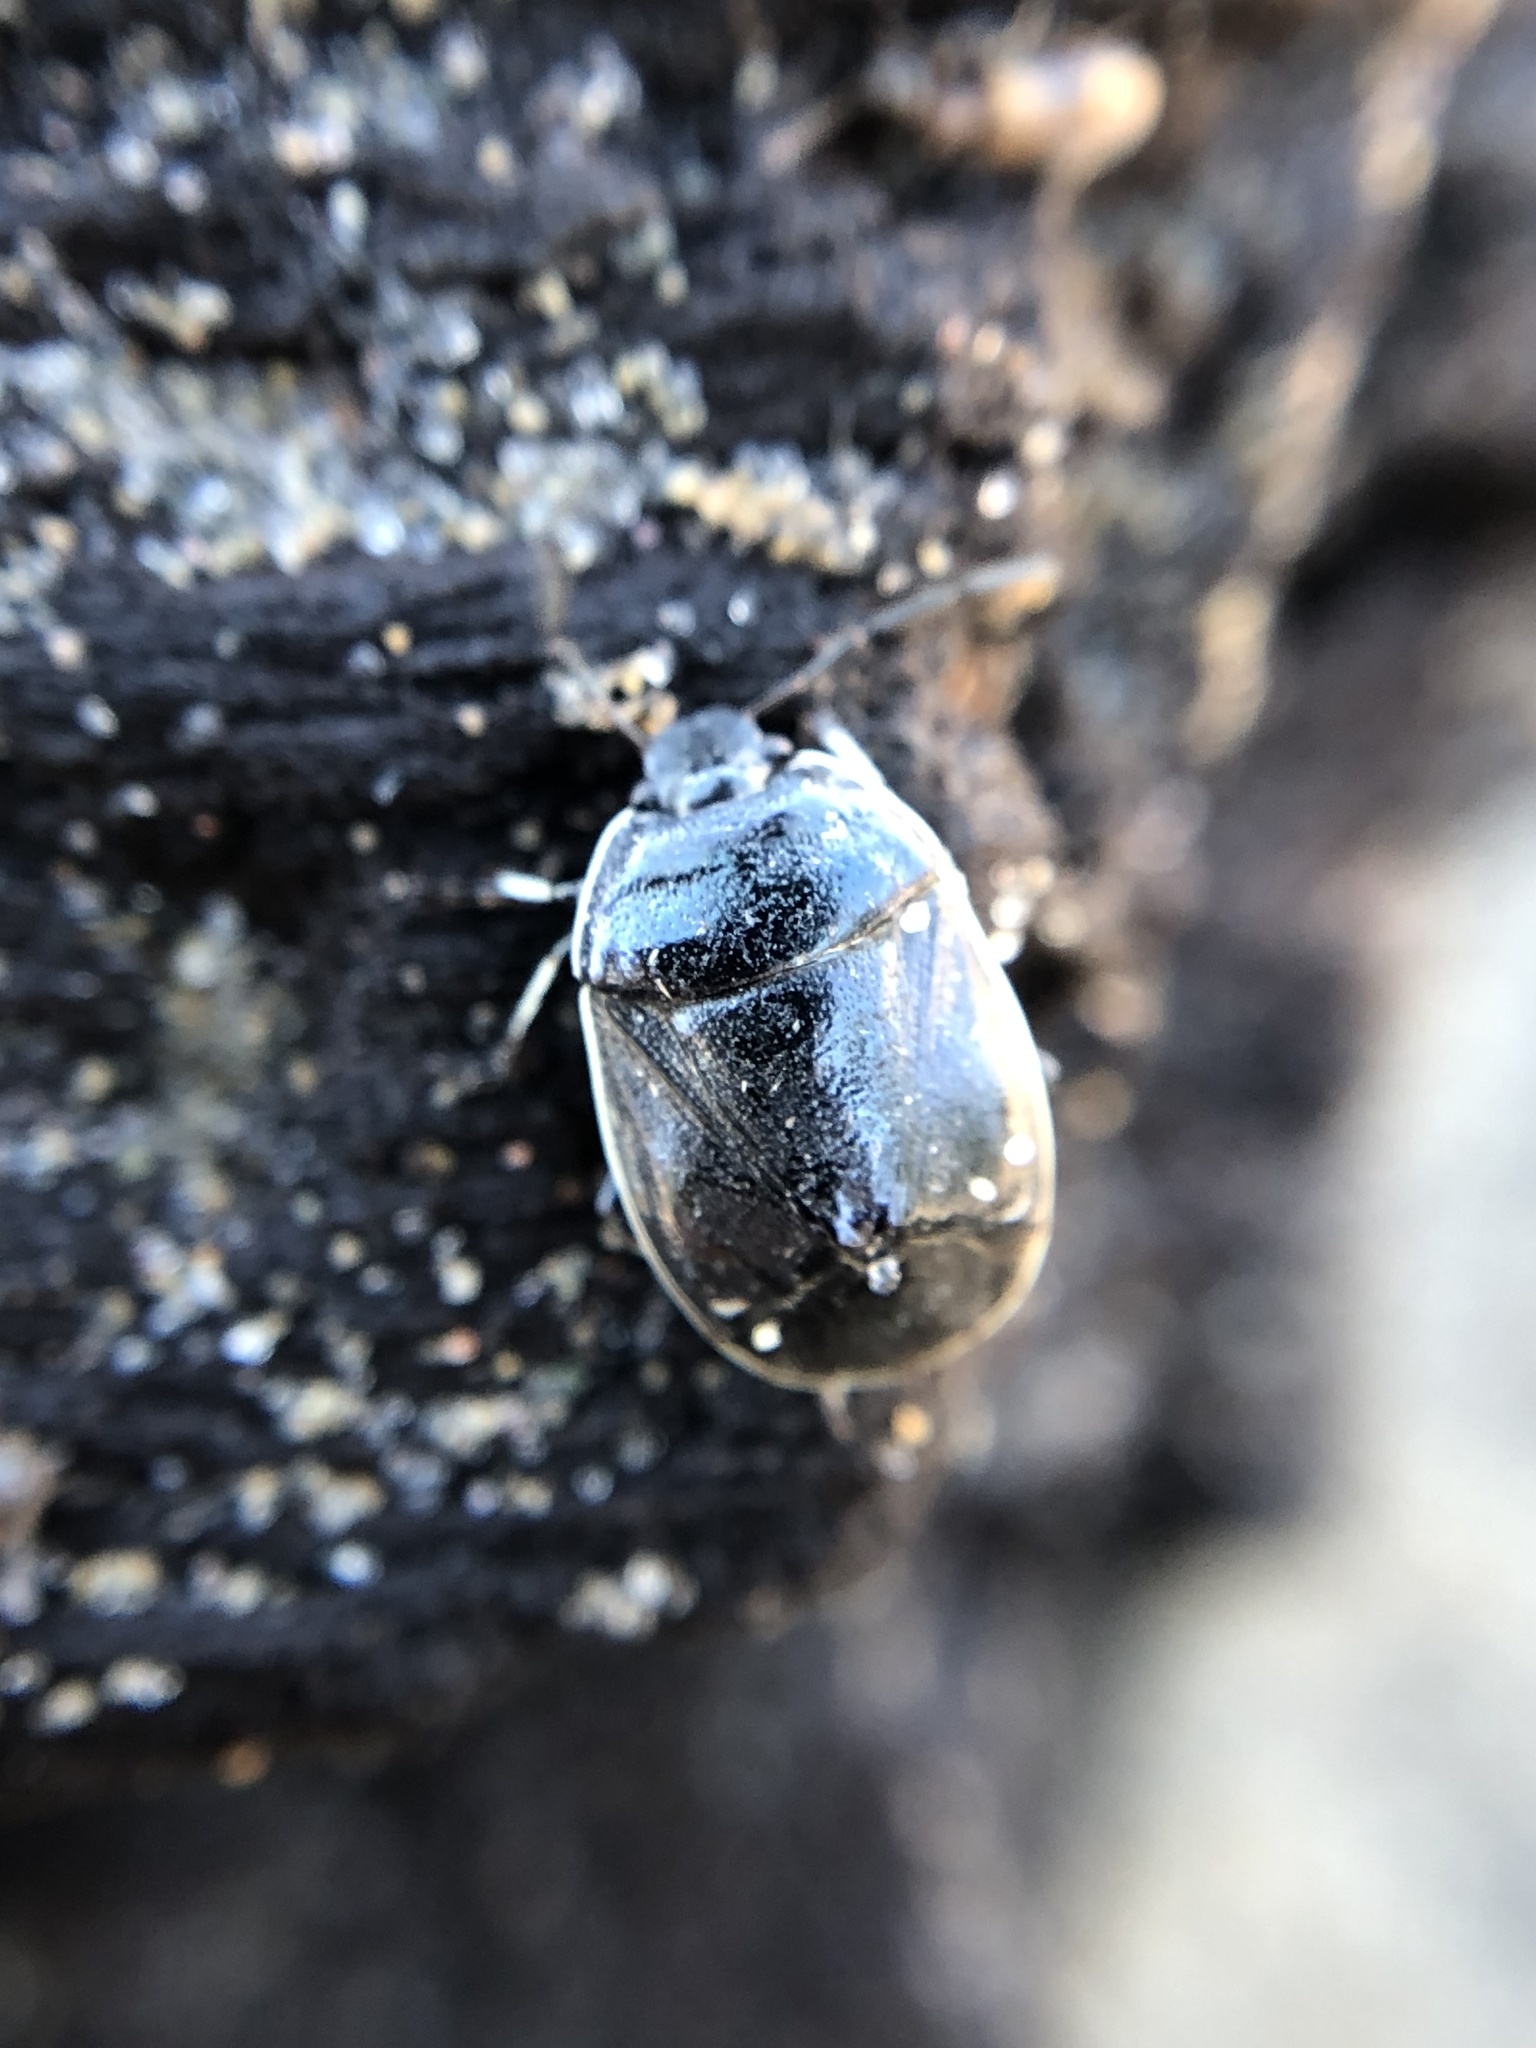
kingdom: Animalia
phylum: Arthropoda
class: Insecta
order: Hemiptera
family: Cydnidae
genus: Sehirus
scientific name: Sehirus cinctus
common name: White-margined burrower bug
